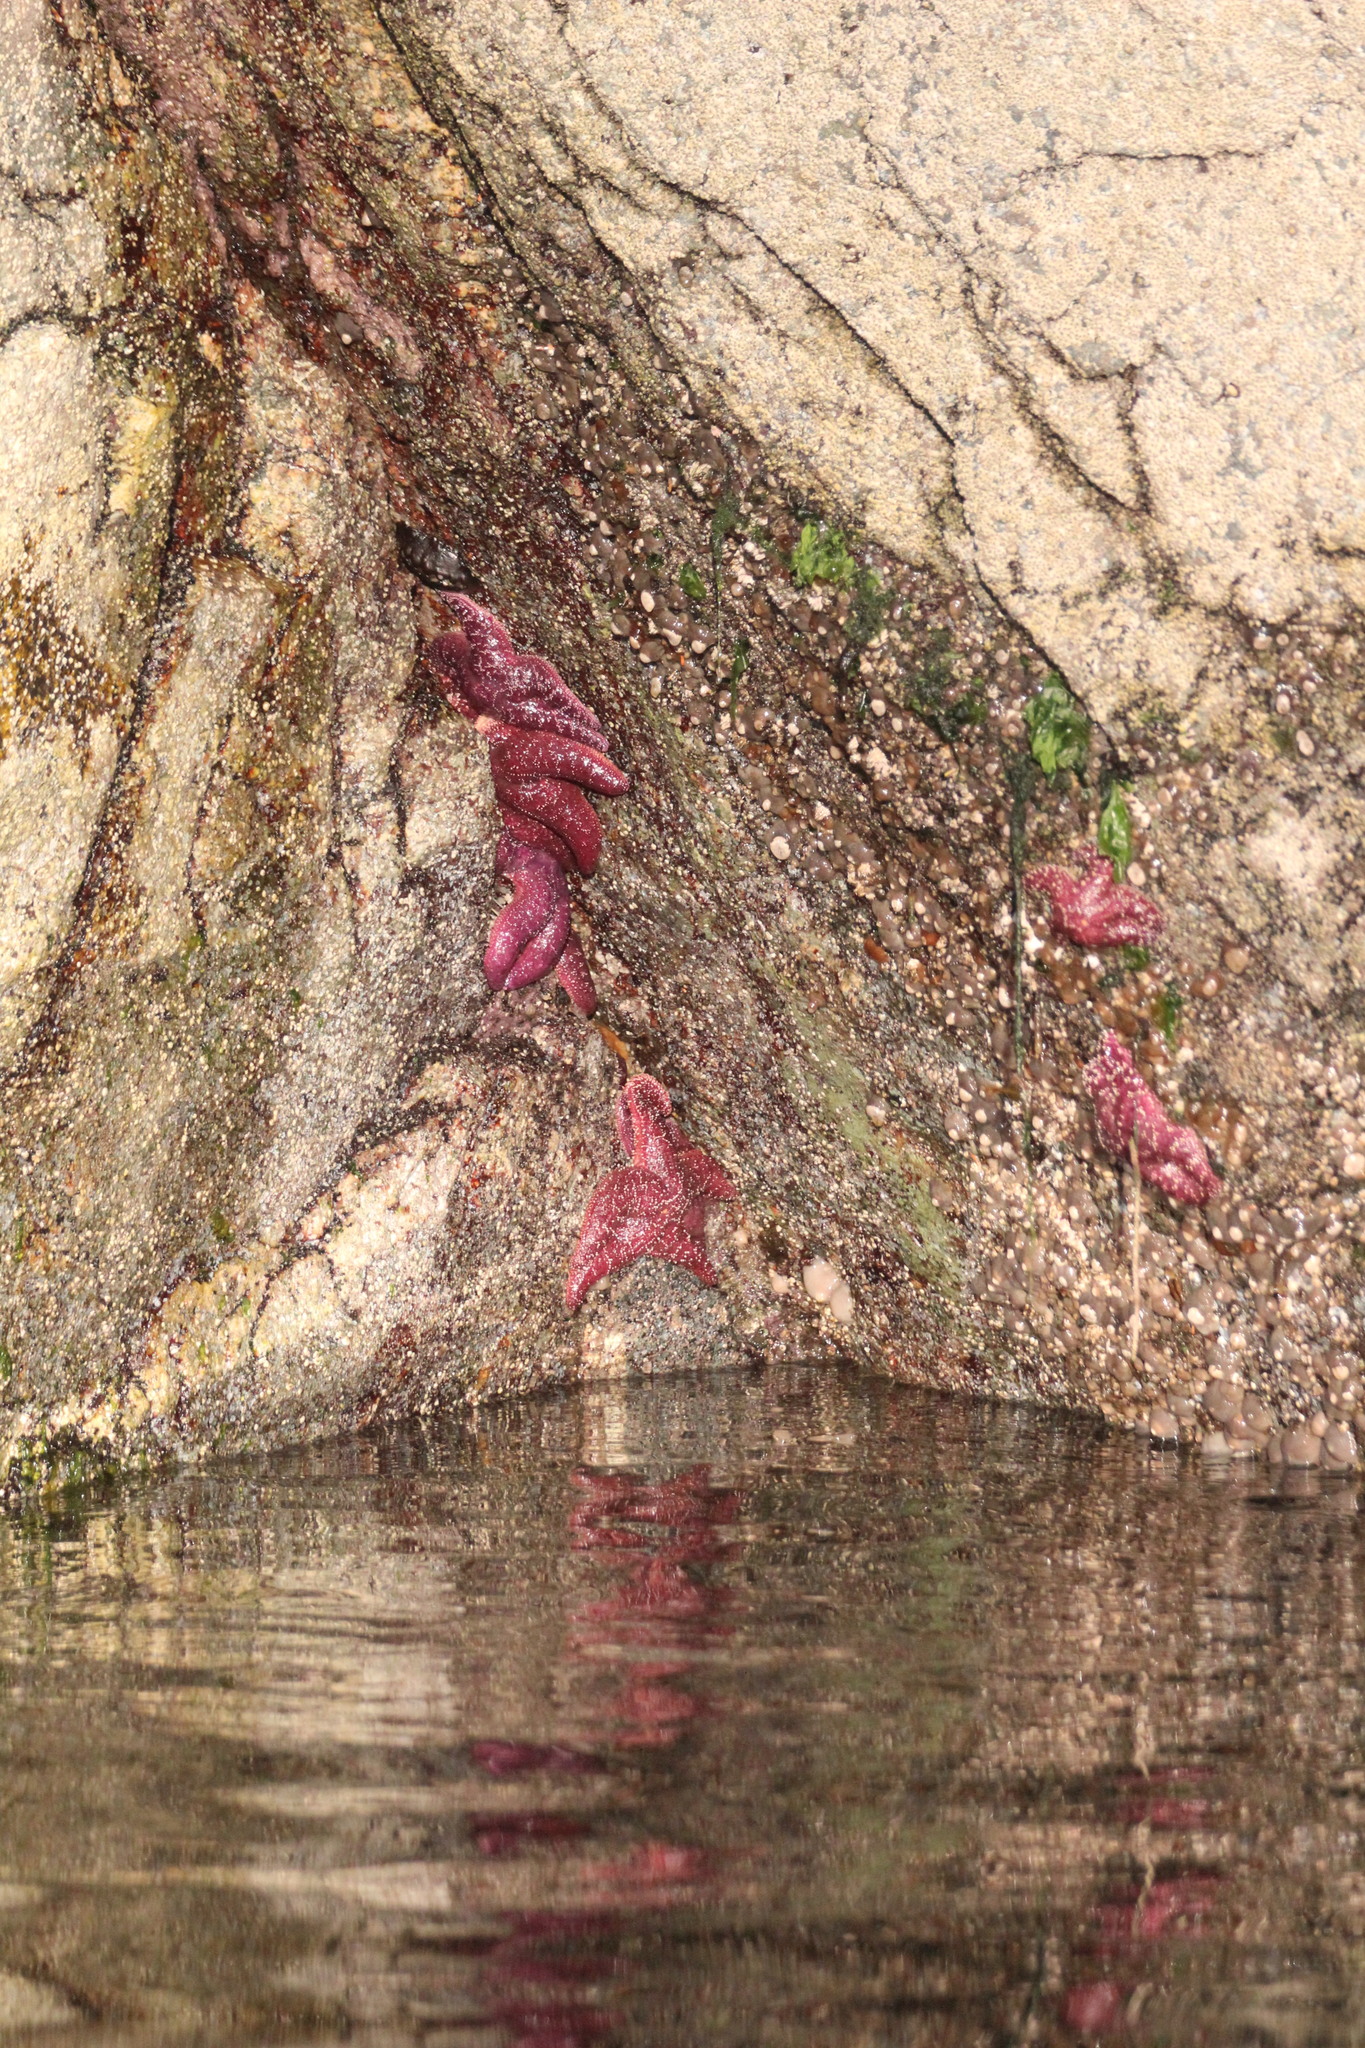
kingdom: Animalia
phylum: Echinodermata
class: Asteroidea
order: Forcipulatida
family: Asteriidae
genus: Pisaster
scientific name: Pisaster ochraceus
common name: Ochre stars
